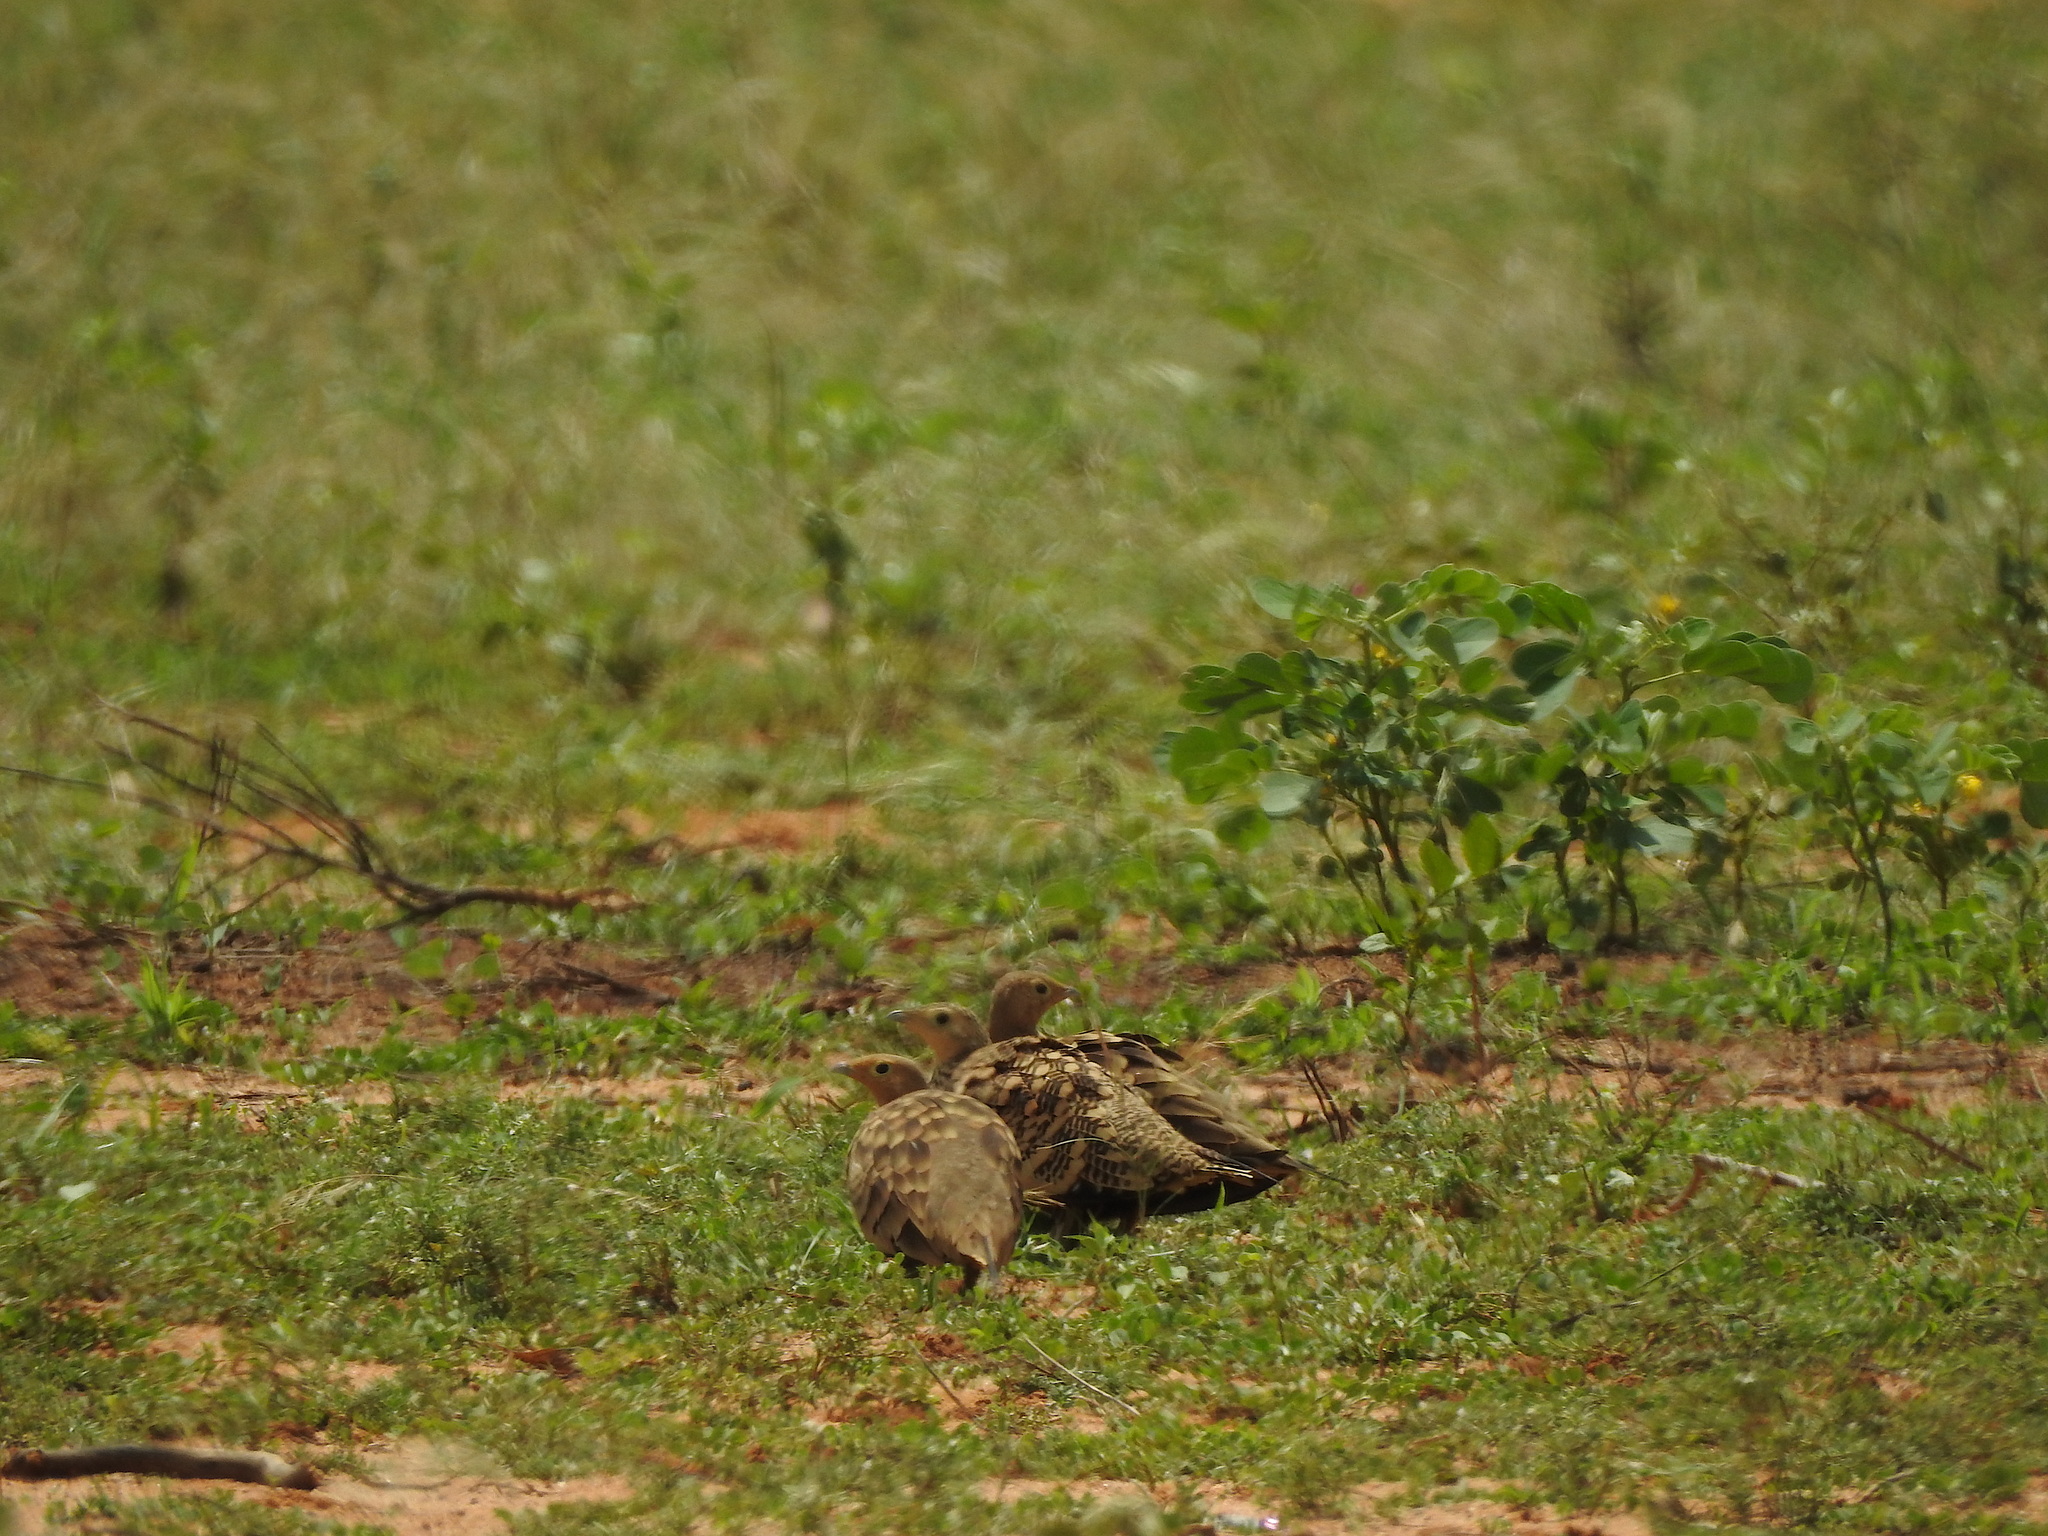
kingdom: Animalia
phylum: Chordata
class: Aves
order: Pteroclidiformes
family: Pteroclididae
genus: Pterocles
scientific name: Pterocles exustus
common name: Chestnut-bellied sandgrouse
